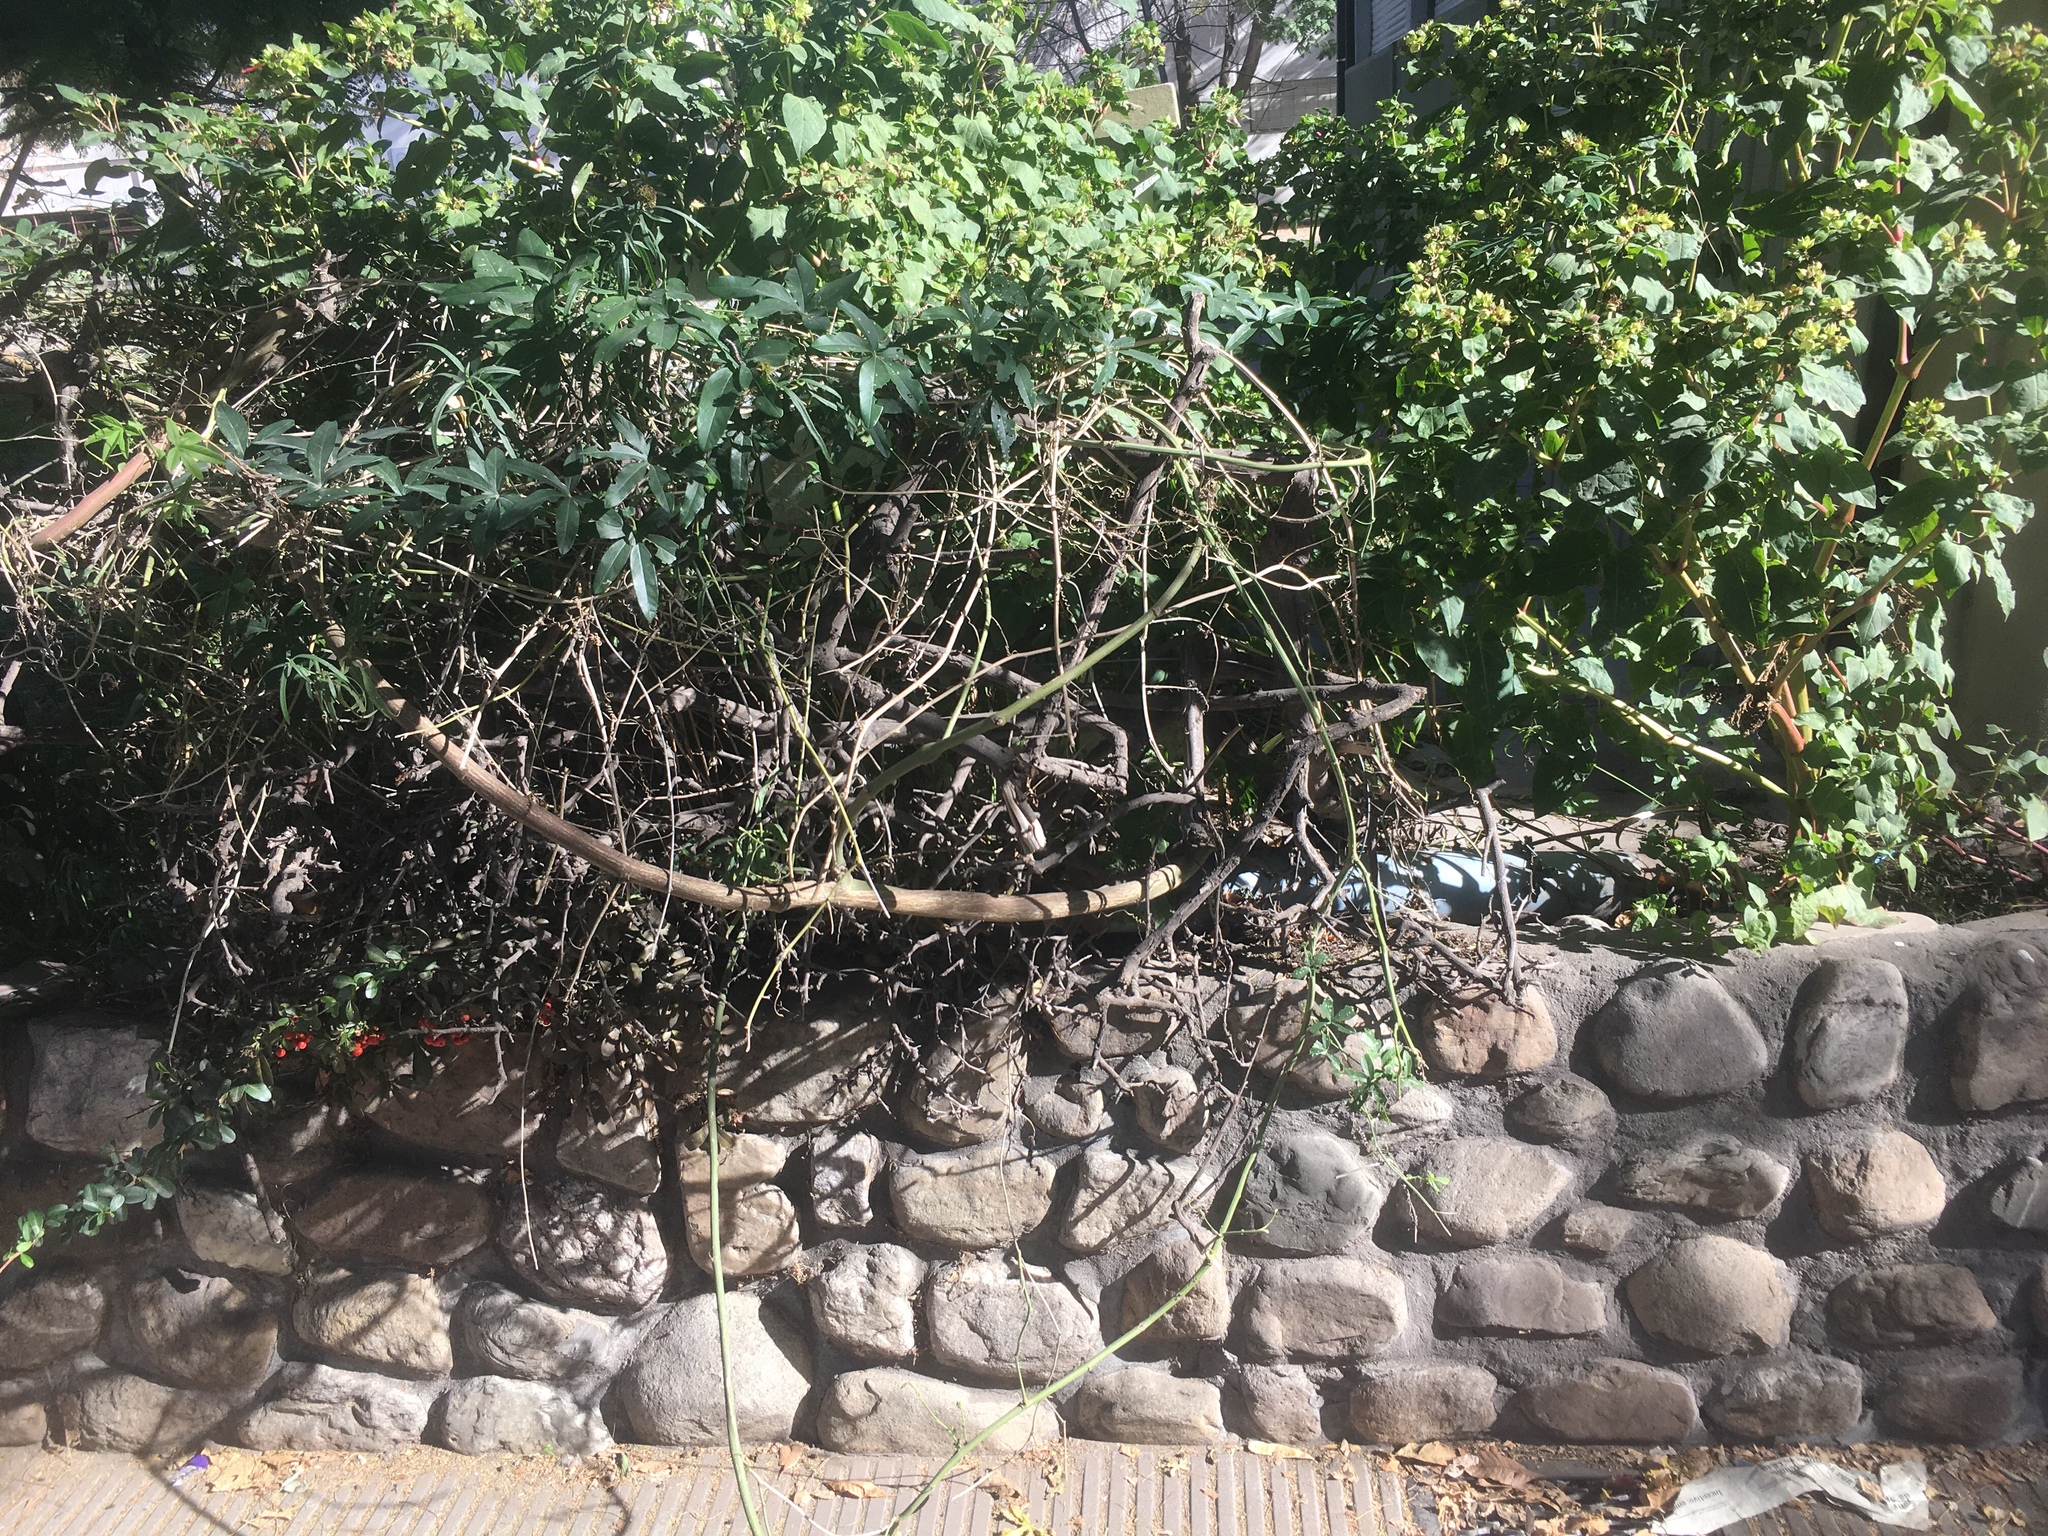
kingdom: Animalia
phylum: Arthropoda
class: Insecta
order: Lepidoptera
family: Nymphalidae
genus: Dione
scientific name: Dione vanillae
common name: Gulf fritillary
